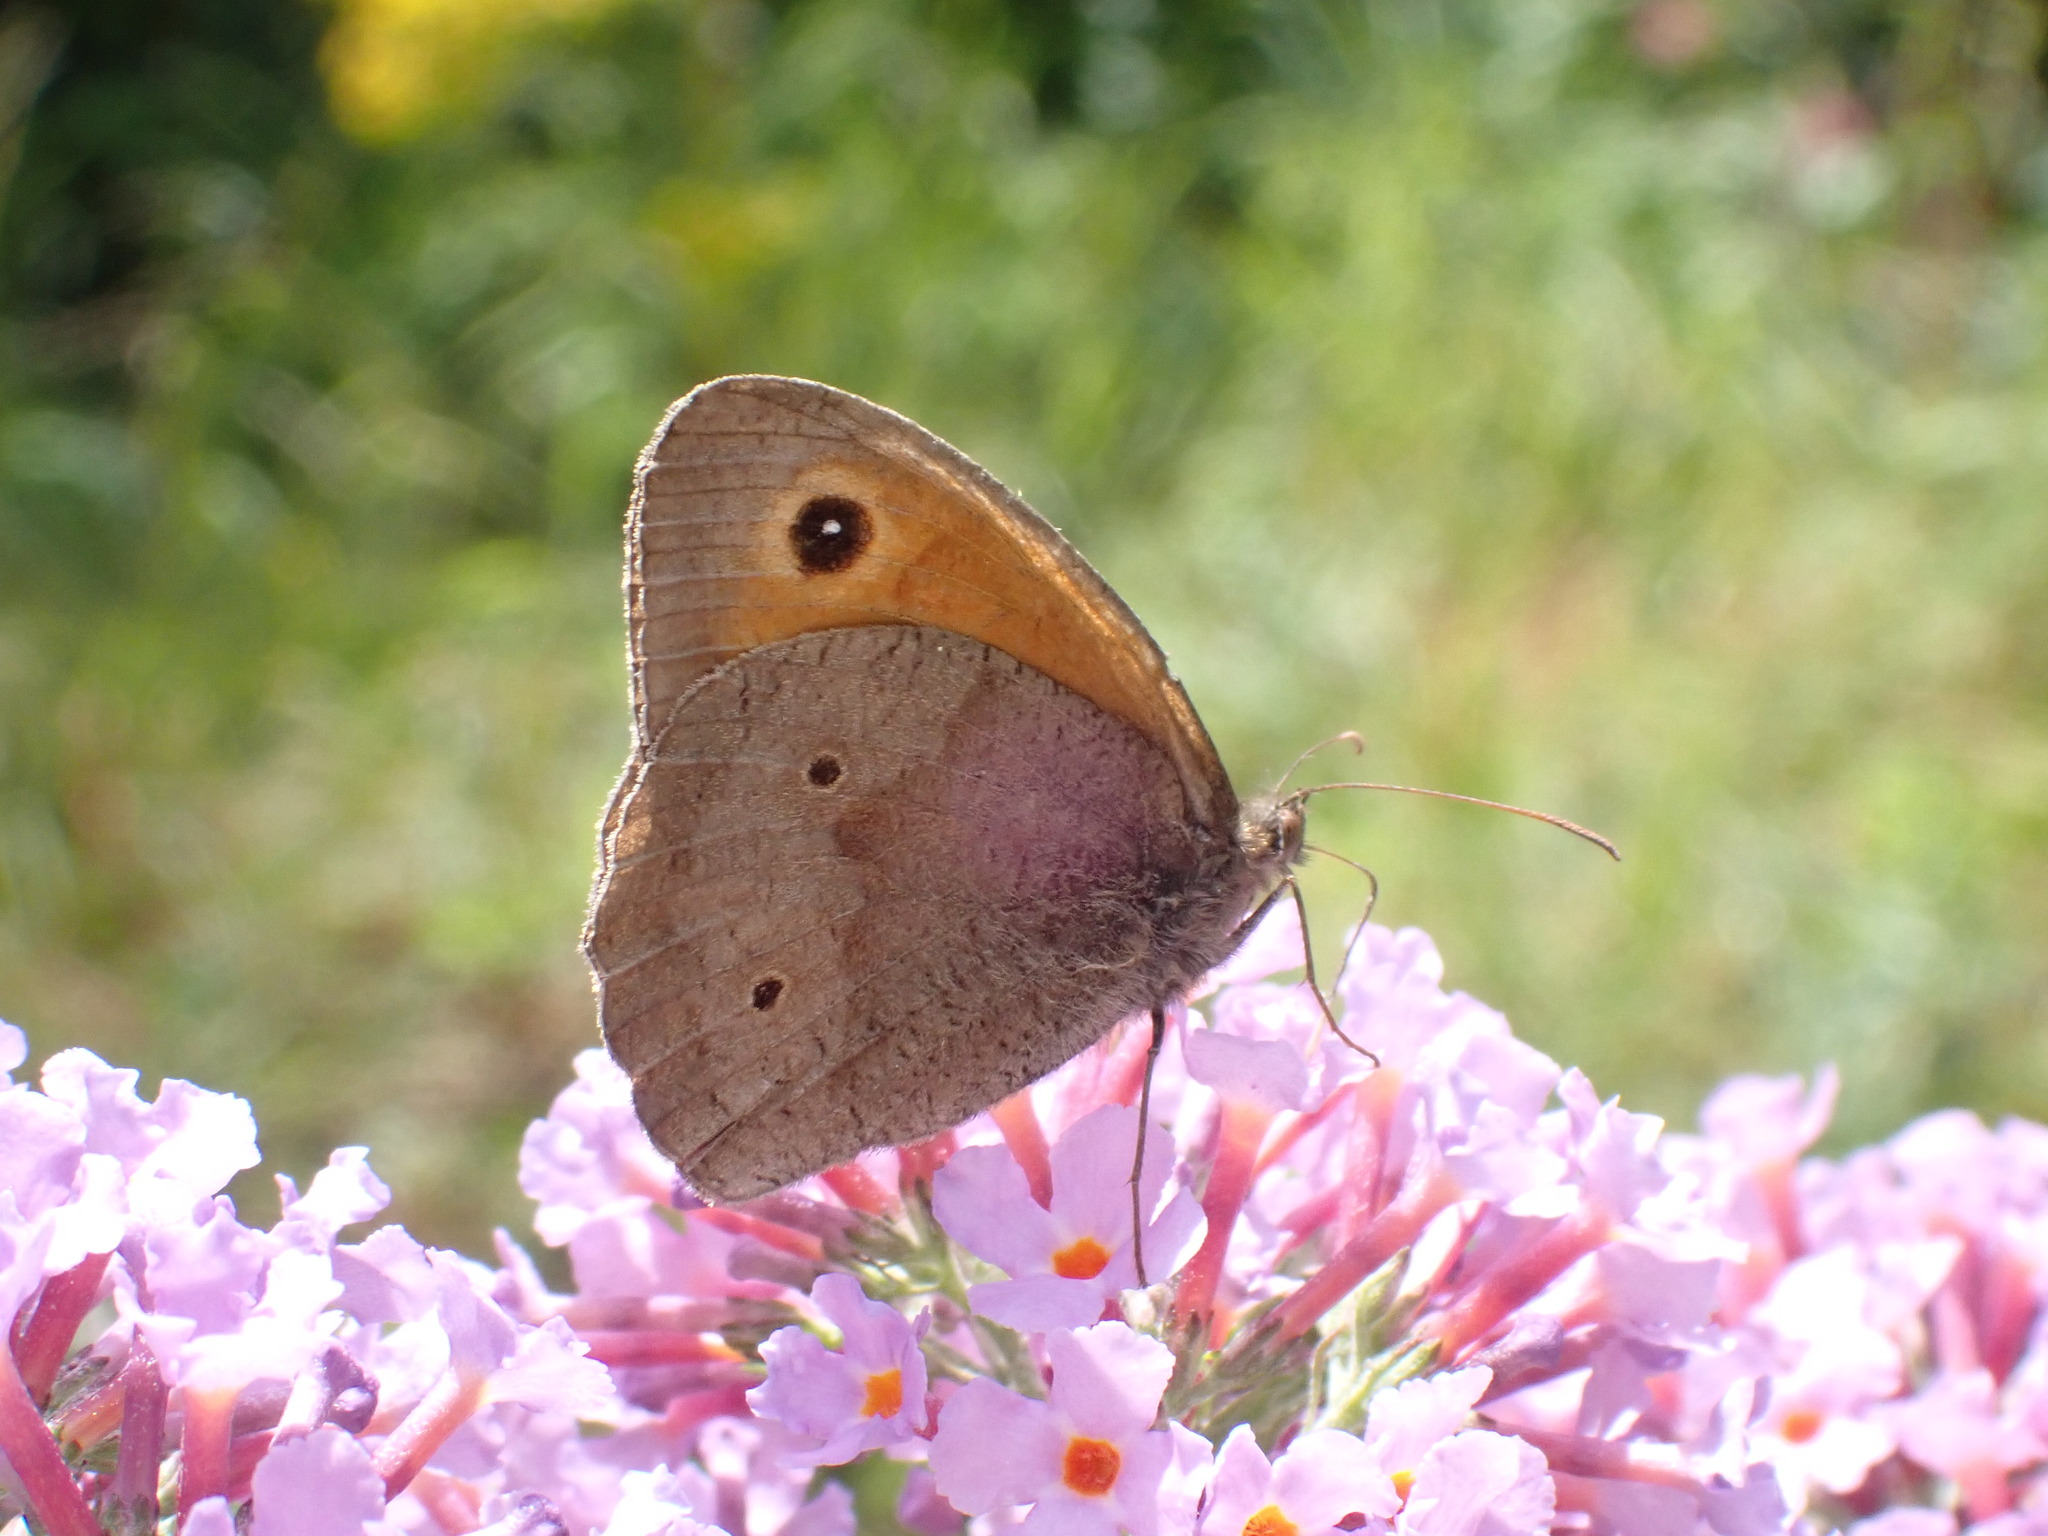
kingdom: Animalia
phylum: Arthropoda
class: Insecta
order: Lepidoptera
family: Nymphalidae
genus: Maniola
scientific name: Maniola jurtina
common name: Meadow brown
